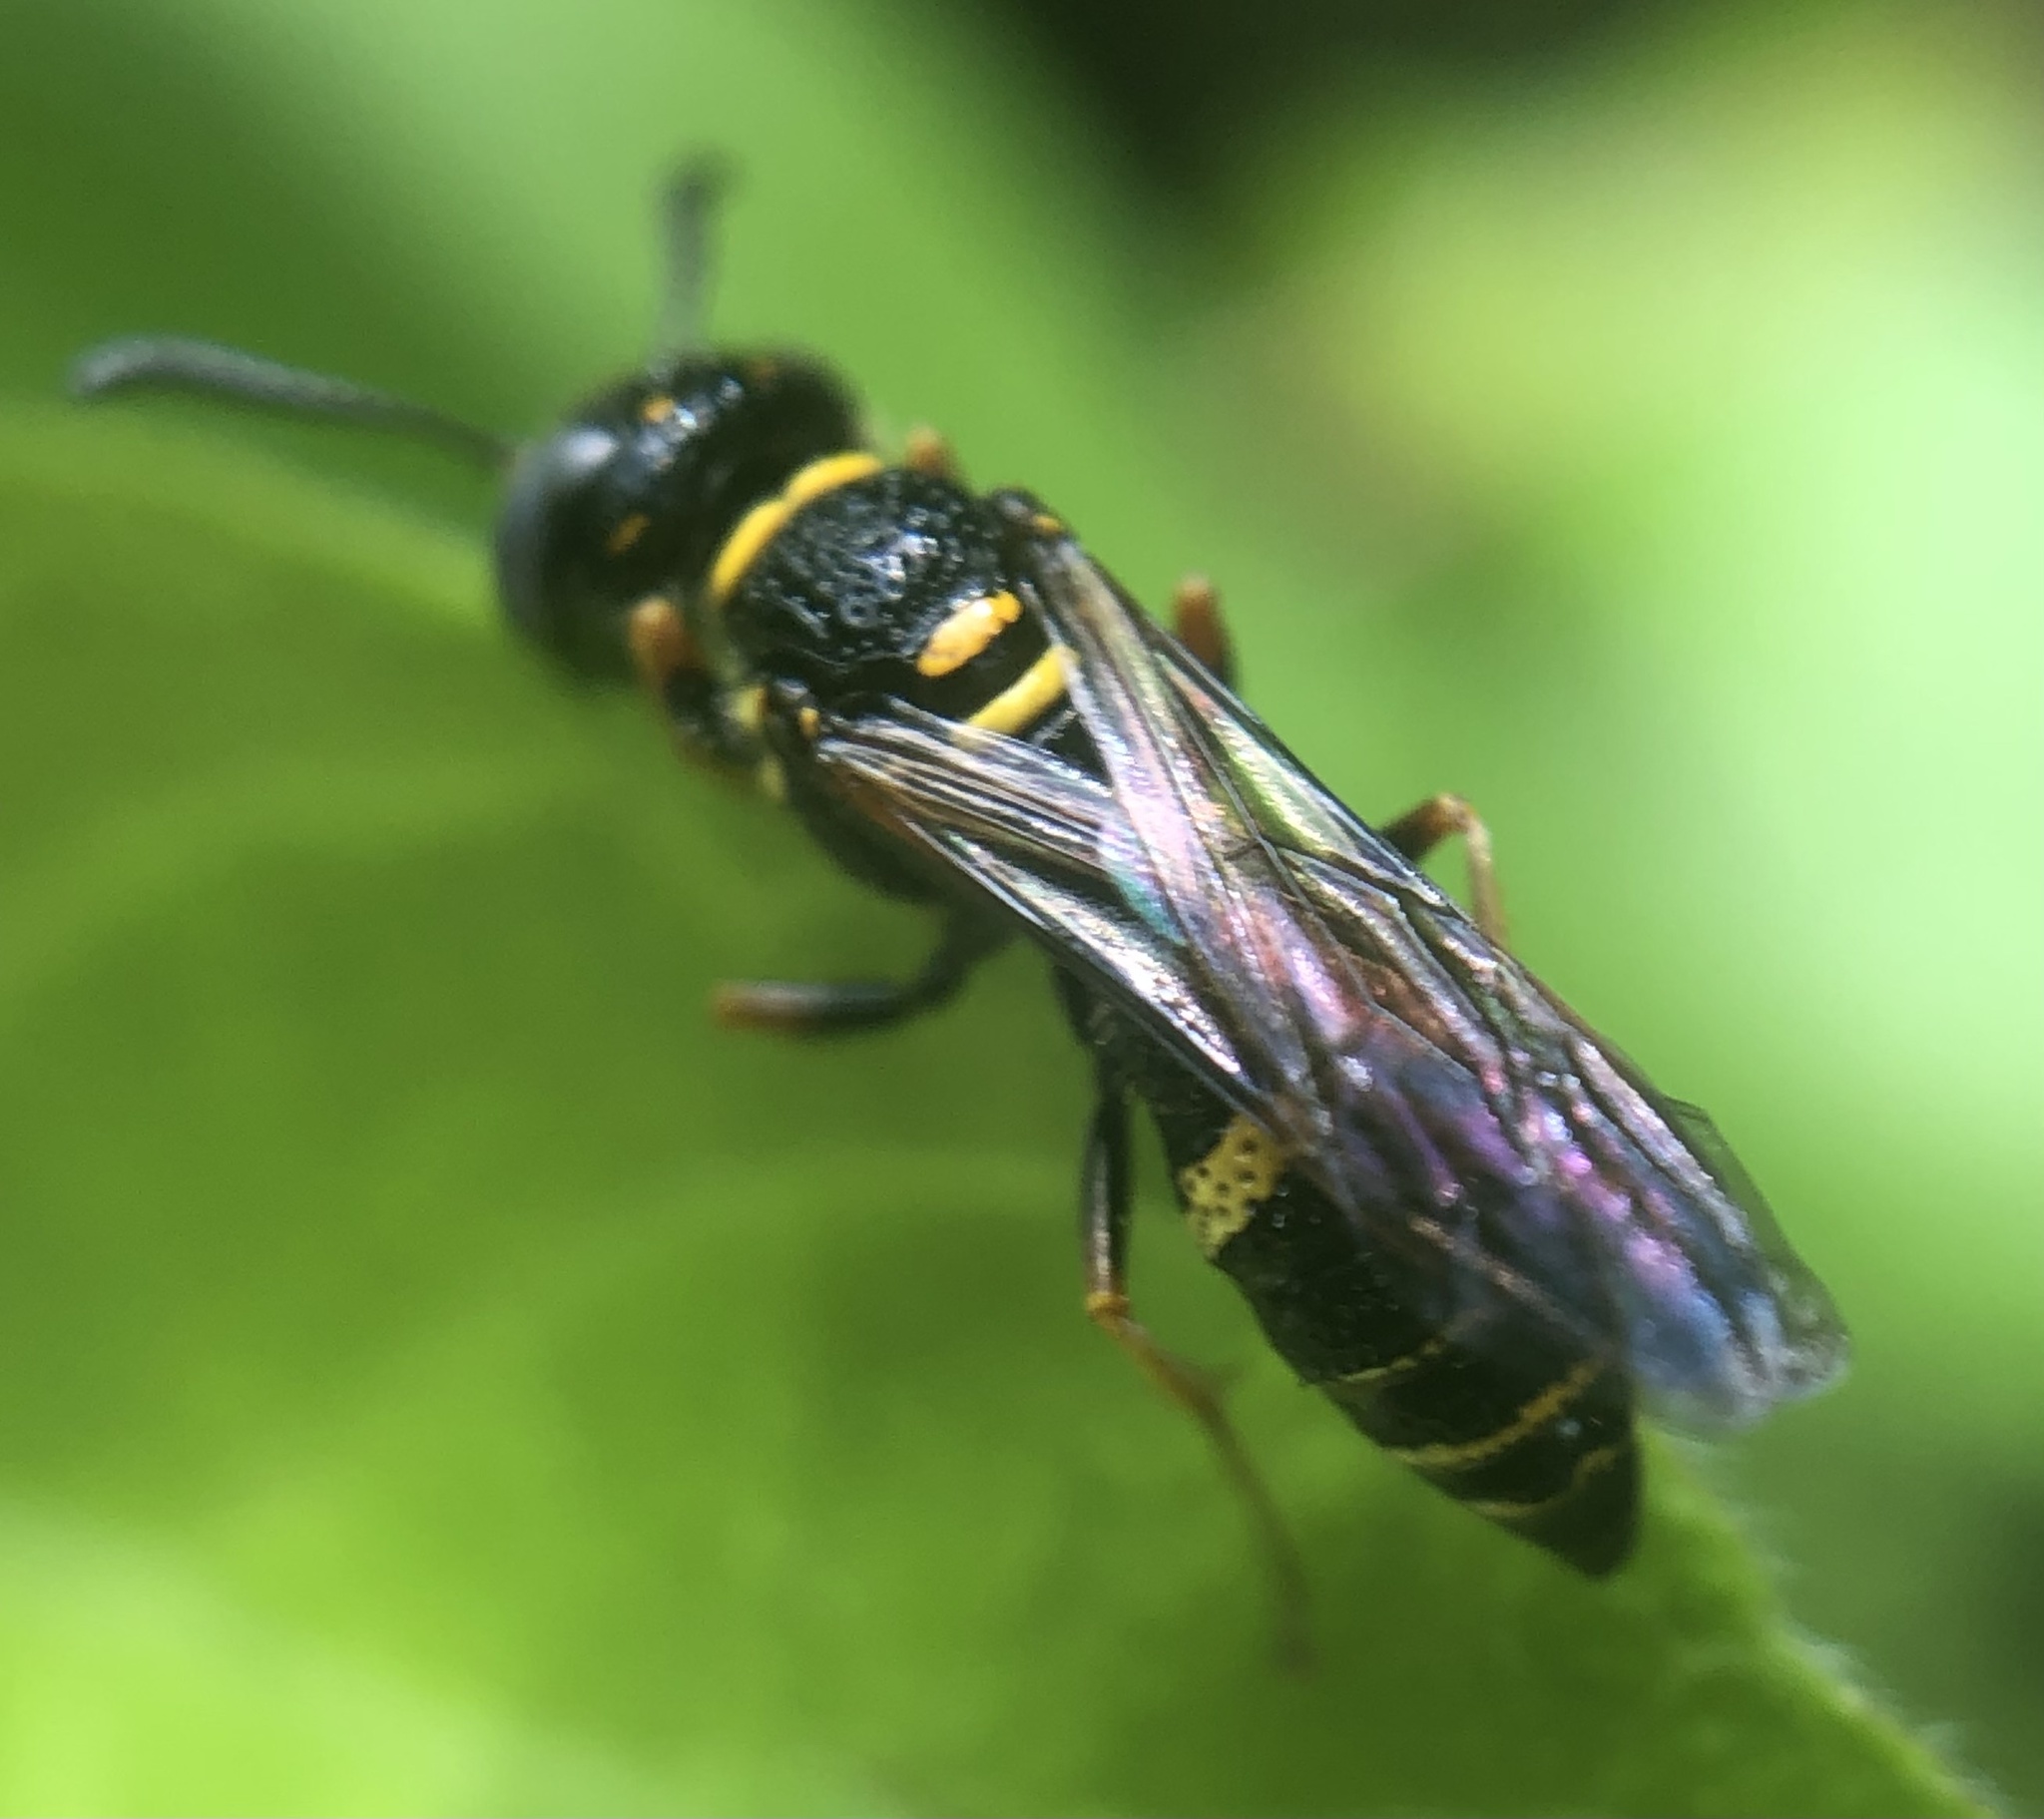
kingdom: Animalia
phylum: Arthropoda
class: Insecta
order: Hymenoptera
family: Crabronidae
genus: Philanthus
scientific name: Philanthus gibbosus
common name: Humped beewolf
